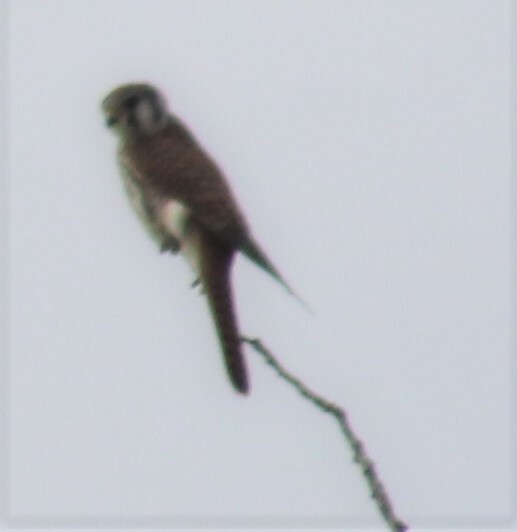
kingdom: Animalia
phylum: Chordata
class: Aves
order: Falconiformes
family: Falconidae
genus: Falco
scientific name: Falco sparverius
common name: American kestrel
